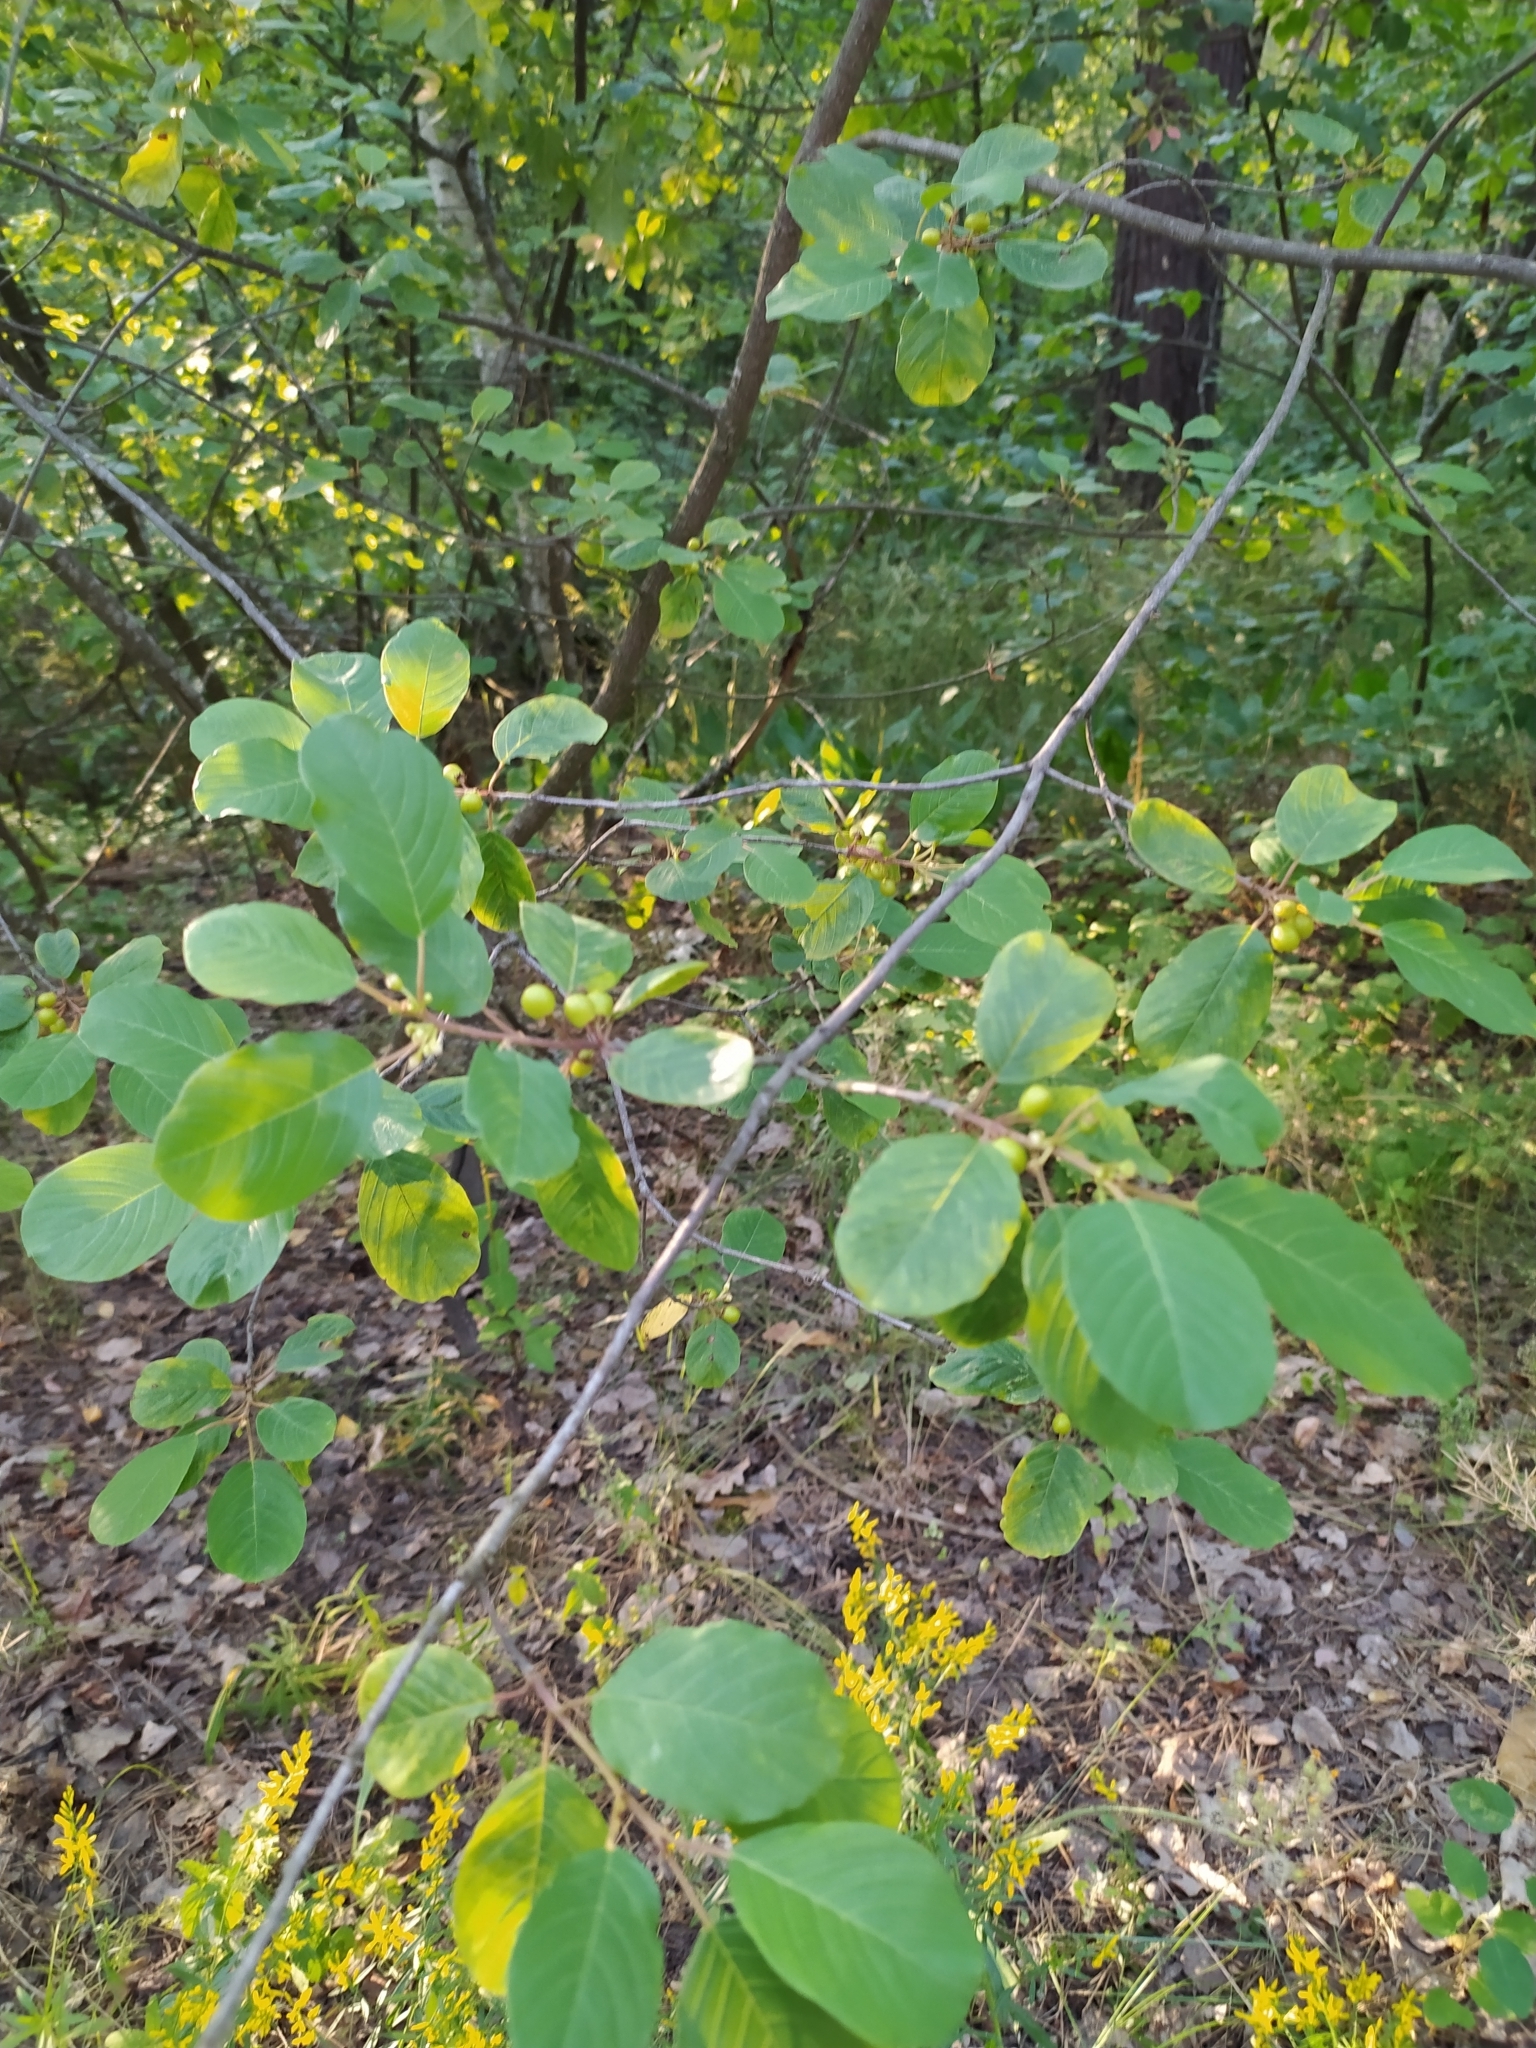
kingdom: Plantae
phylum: Tracheophyta
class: Magnoliopsida
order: Rosales
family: Rhamnaceae
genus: Frangula
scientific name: Frangula alnus
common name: Alder buckthorn
